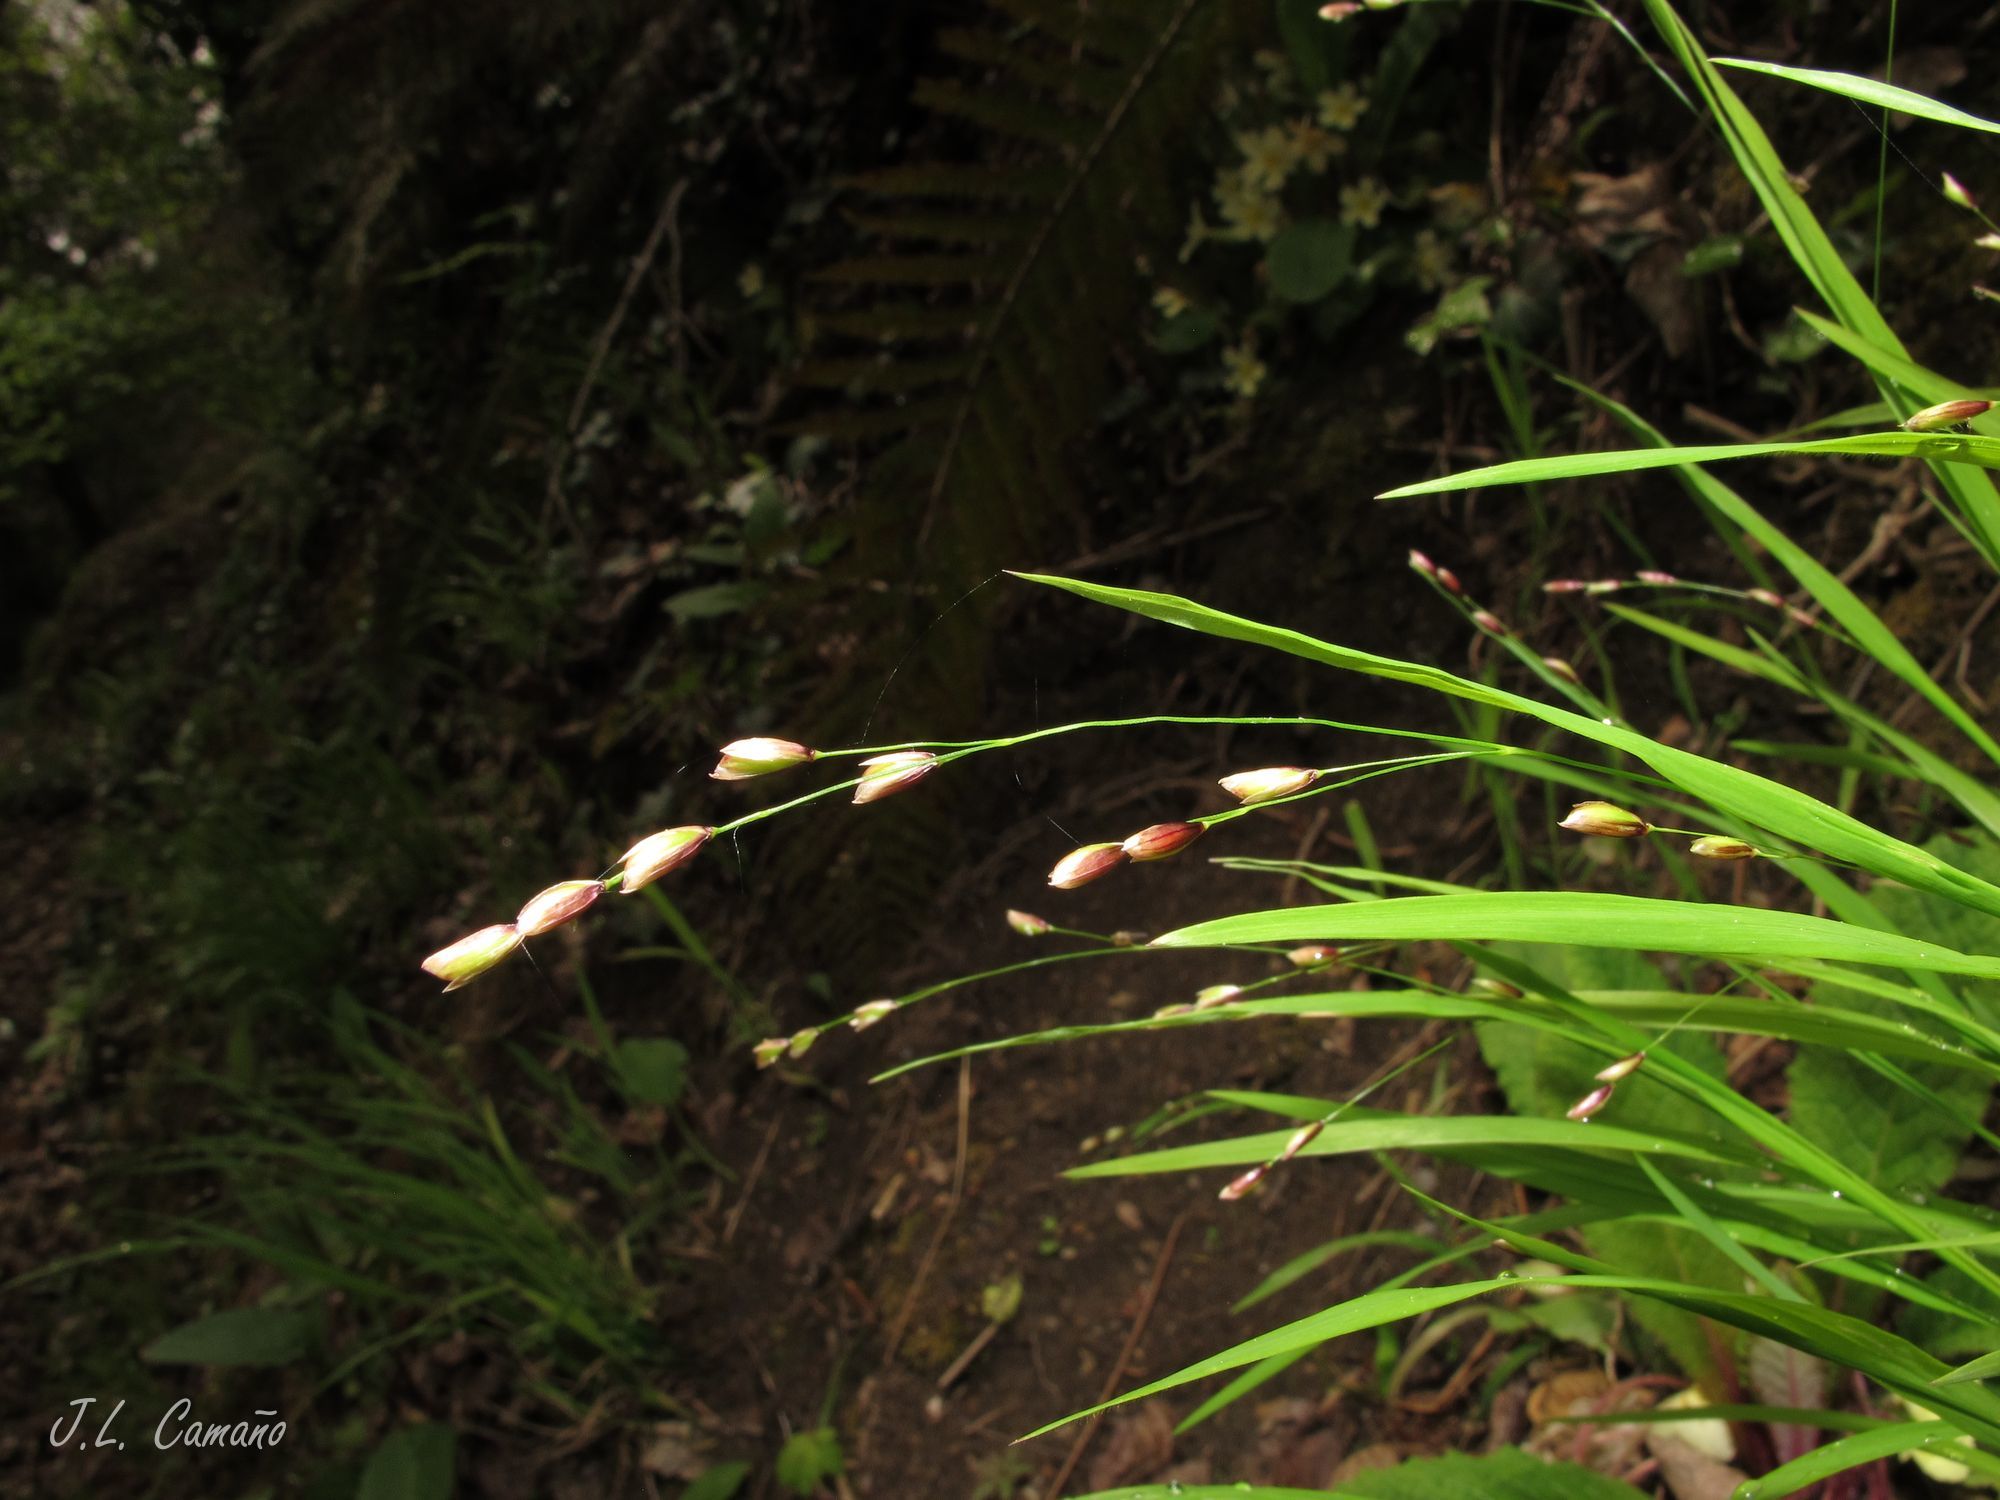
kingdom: Plantae
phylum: Tracheophyta
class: Liliopsida
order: Poales
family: Poaceae
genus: Melica
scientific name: Melica uniflora
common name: Wood melick
